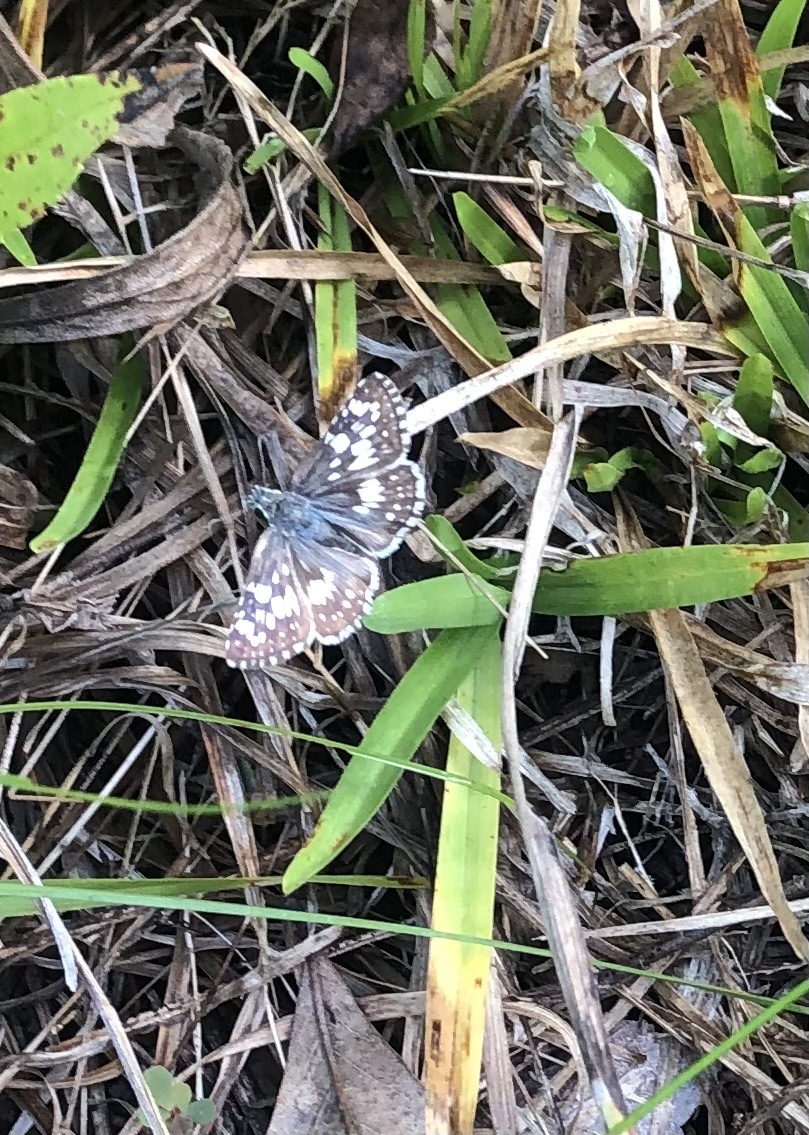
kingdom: Animalia
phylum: Arthropoda
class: Insecta
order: Lepidoptera
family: Hesperiidae
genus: Burnsius
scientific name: Burnsius albezens
